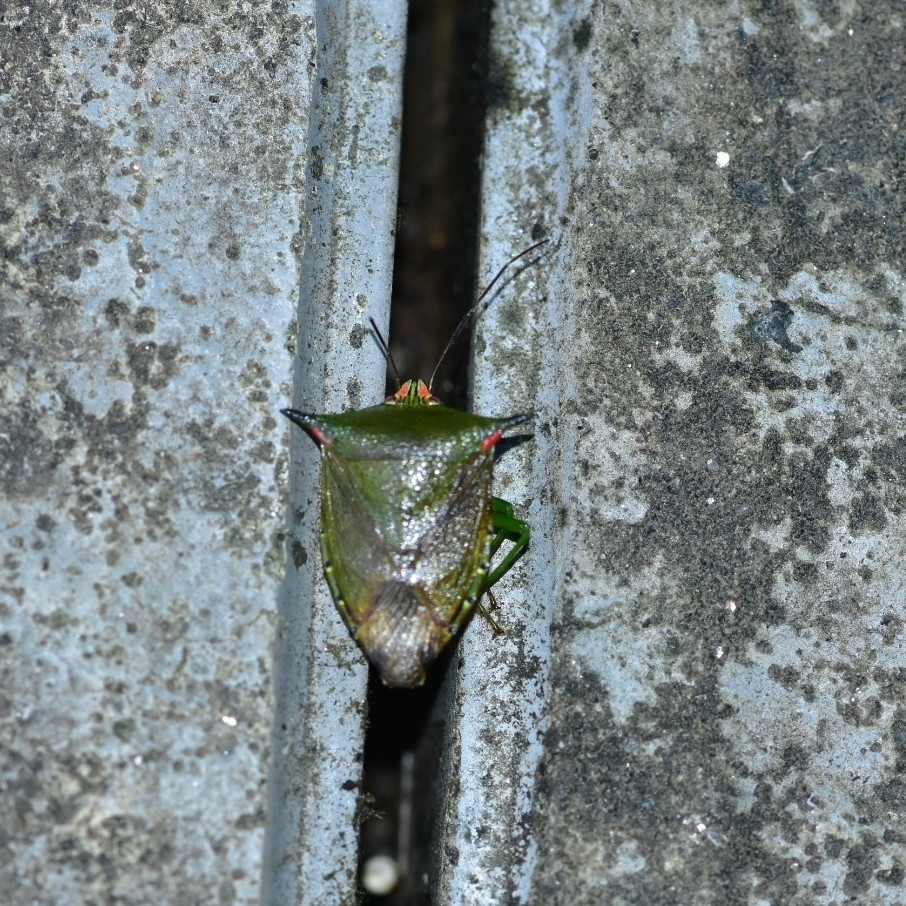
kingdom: Animalia
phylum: Arthropoda
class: Insecta
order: Hemiptera
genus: Sabaeus
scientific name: Sabaeus
